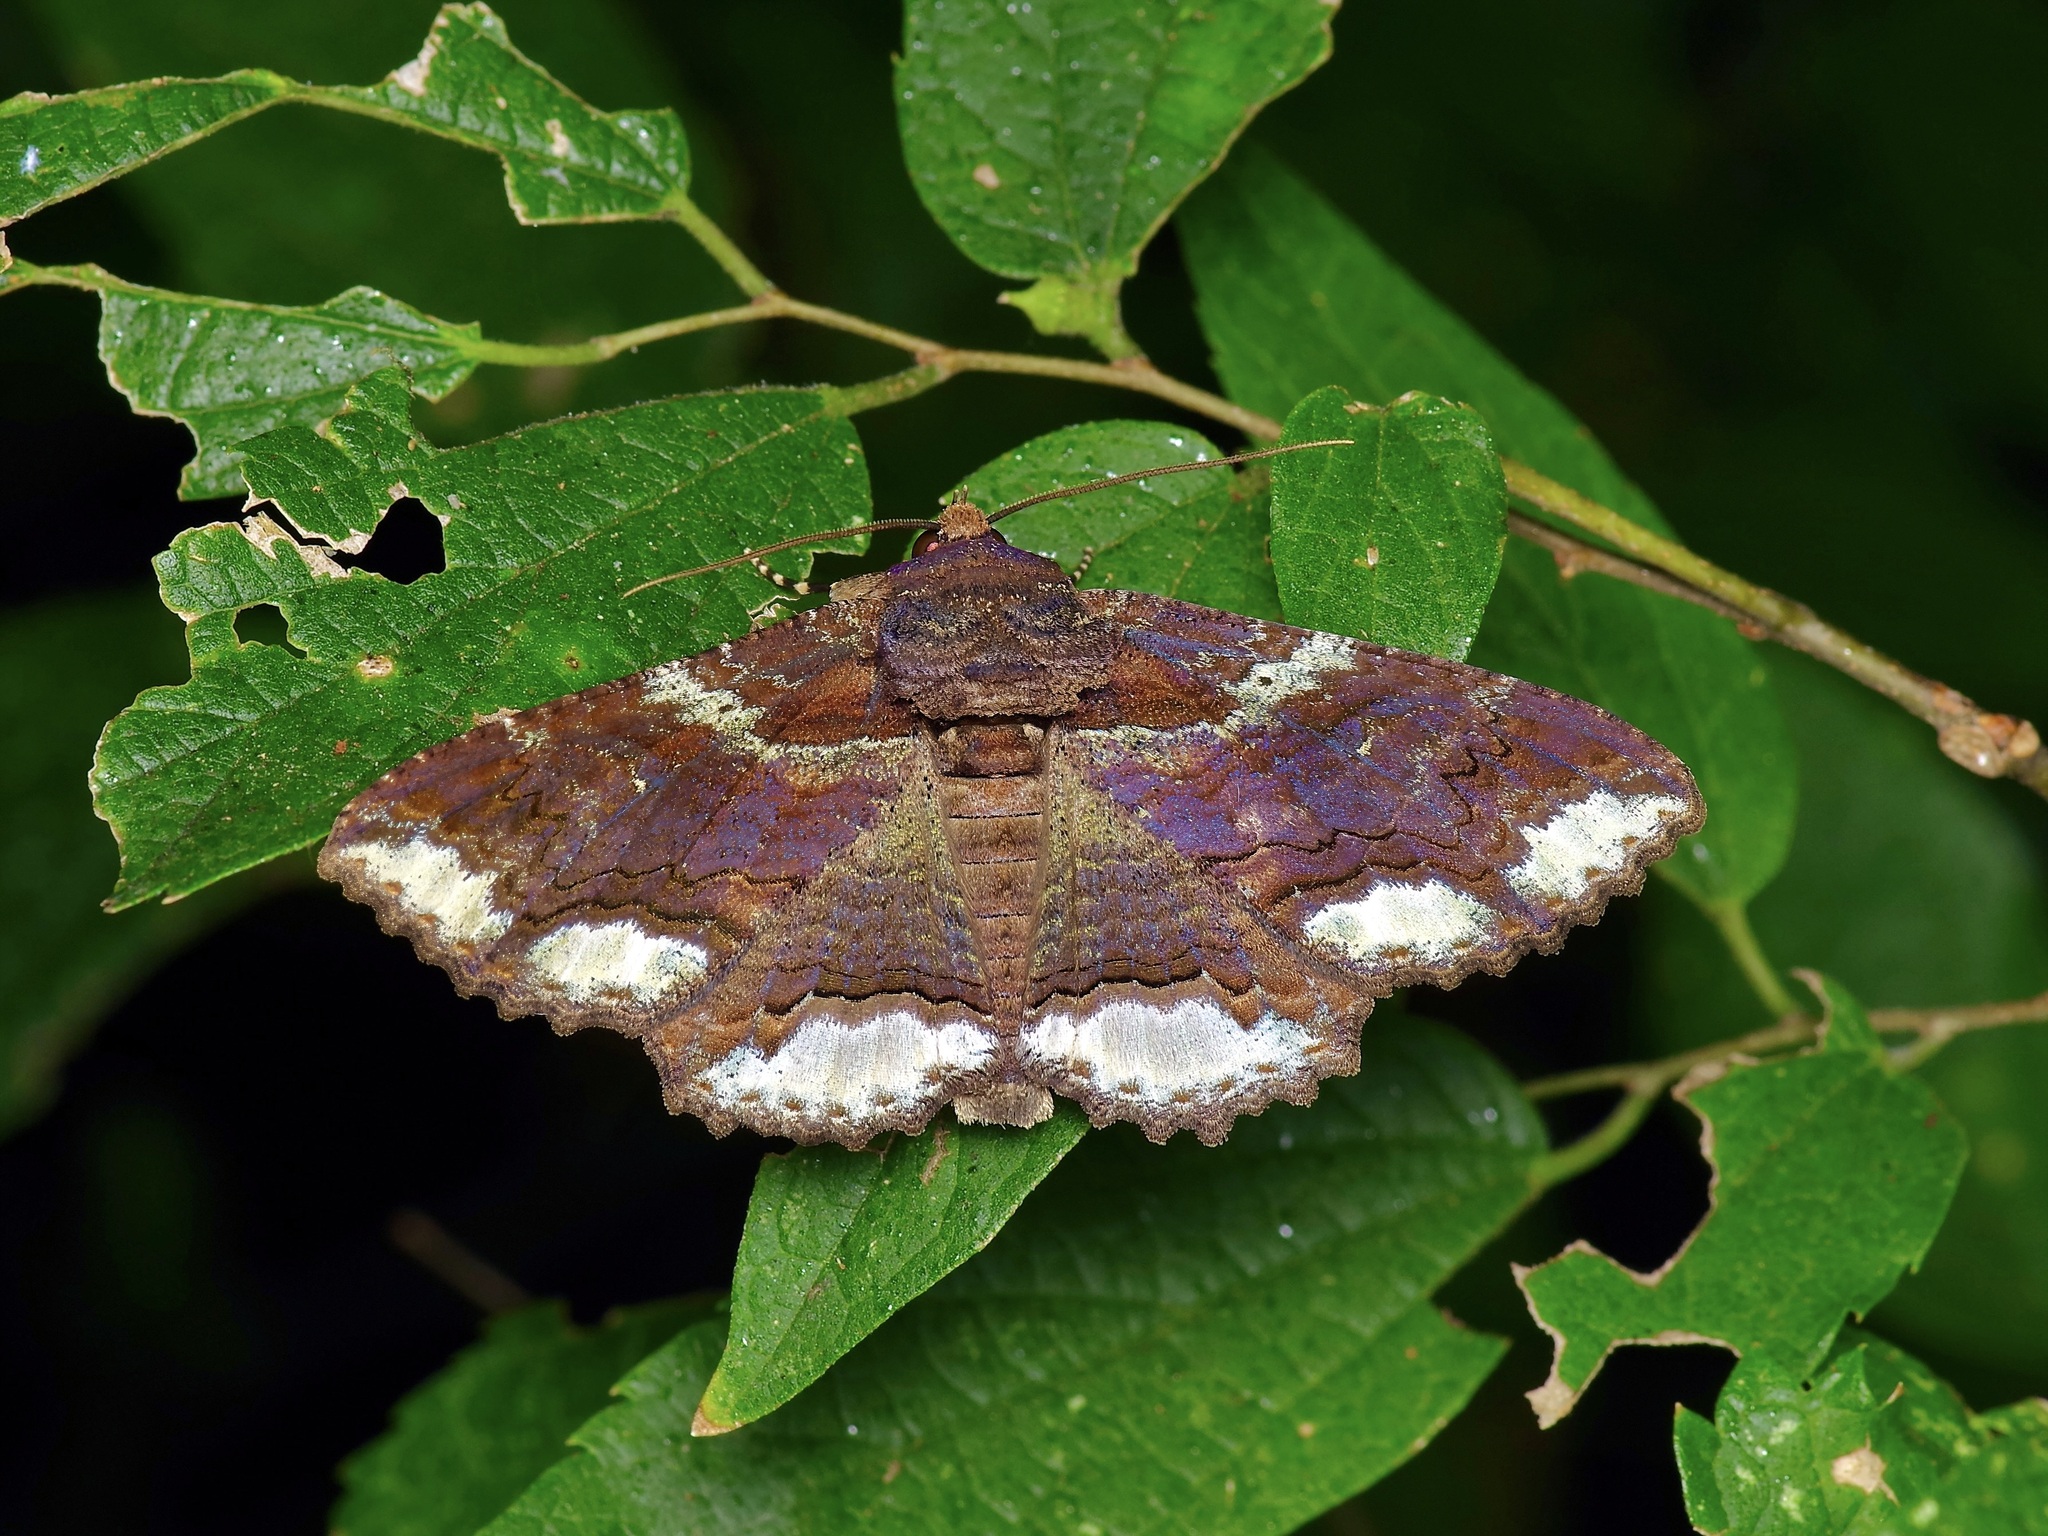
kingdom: Animalia
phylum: Arthropoda
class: Insecta
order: Lepidoptera
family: Erebidae
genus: Zale
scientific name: Zale lunata
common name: Lunate zale moth
